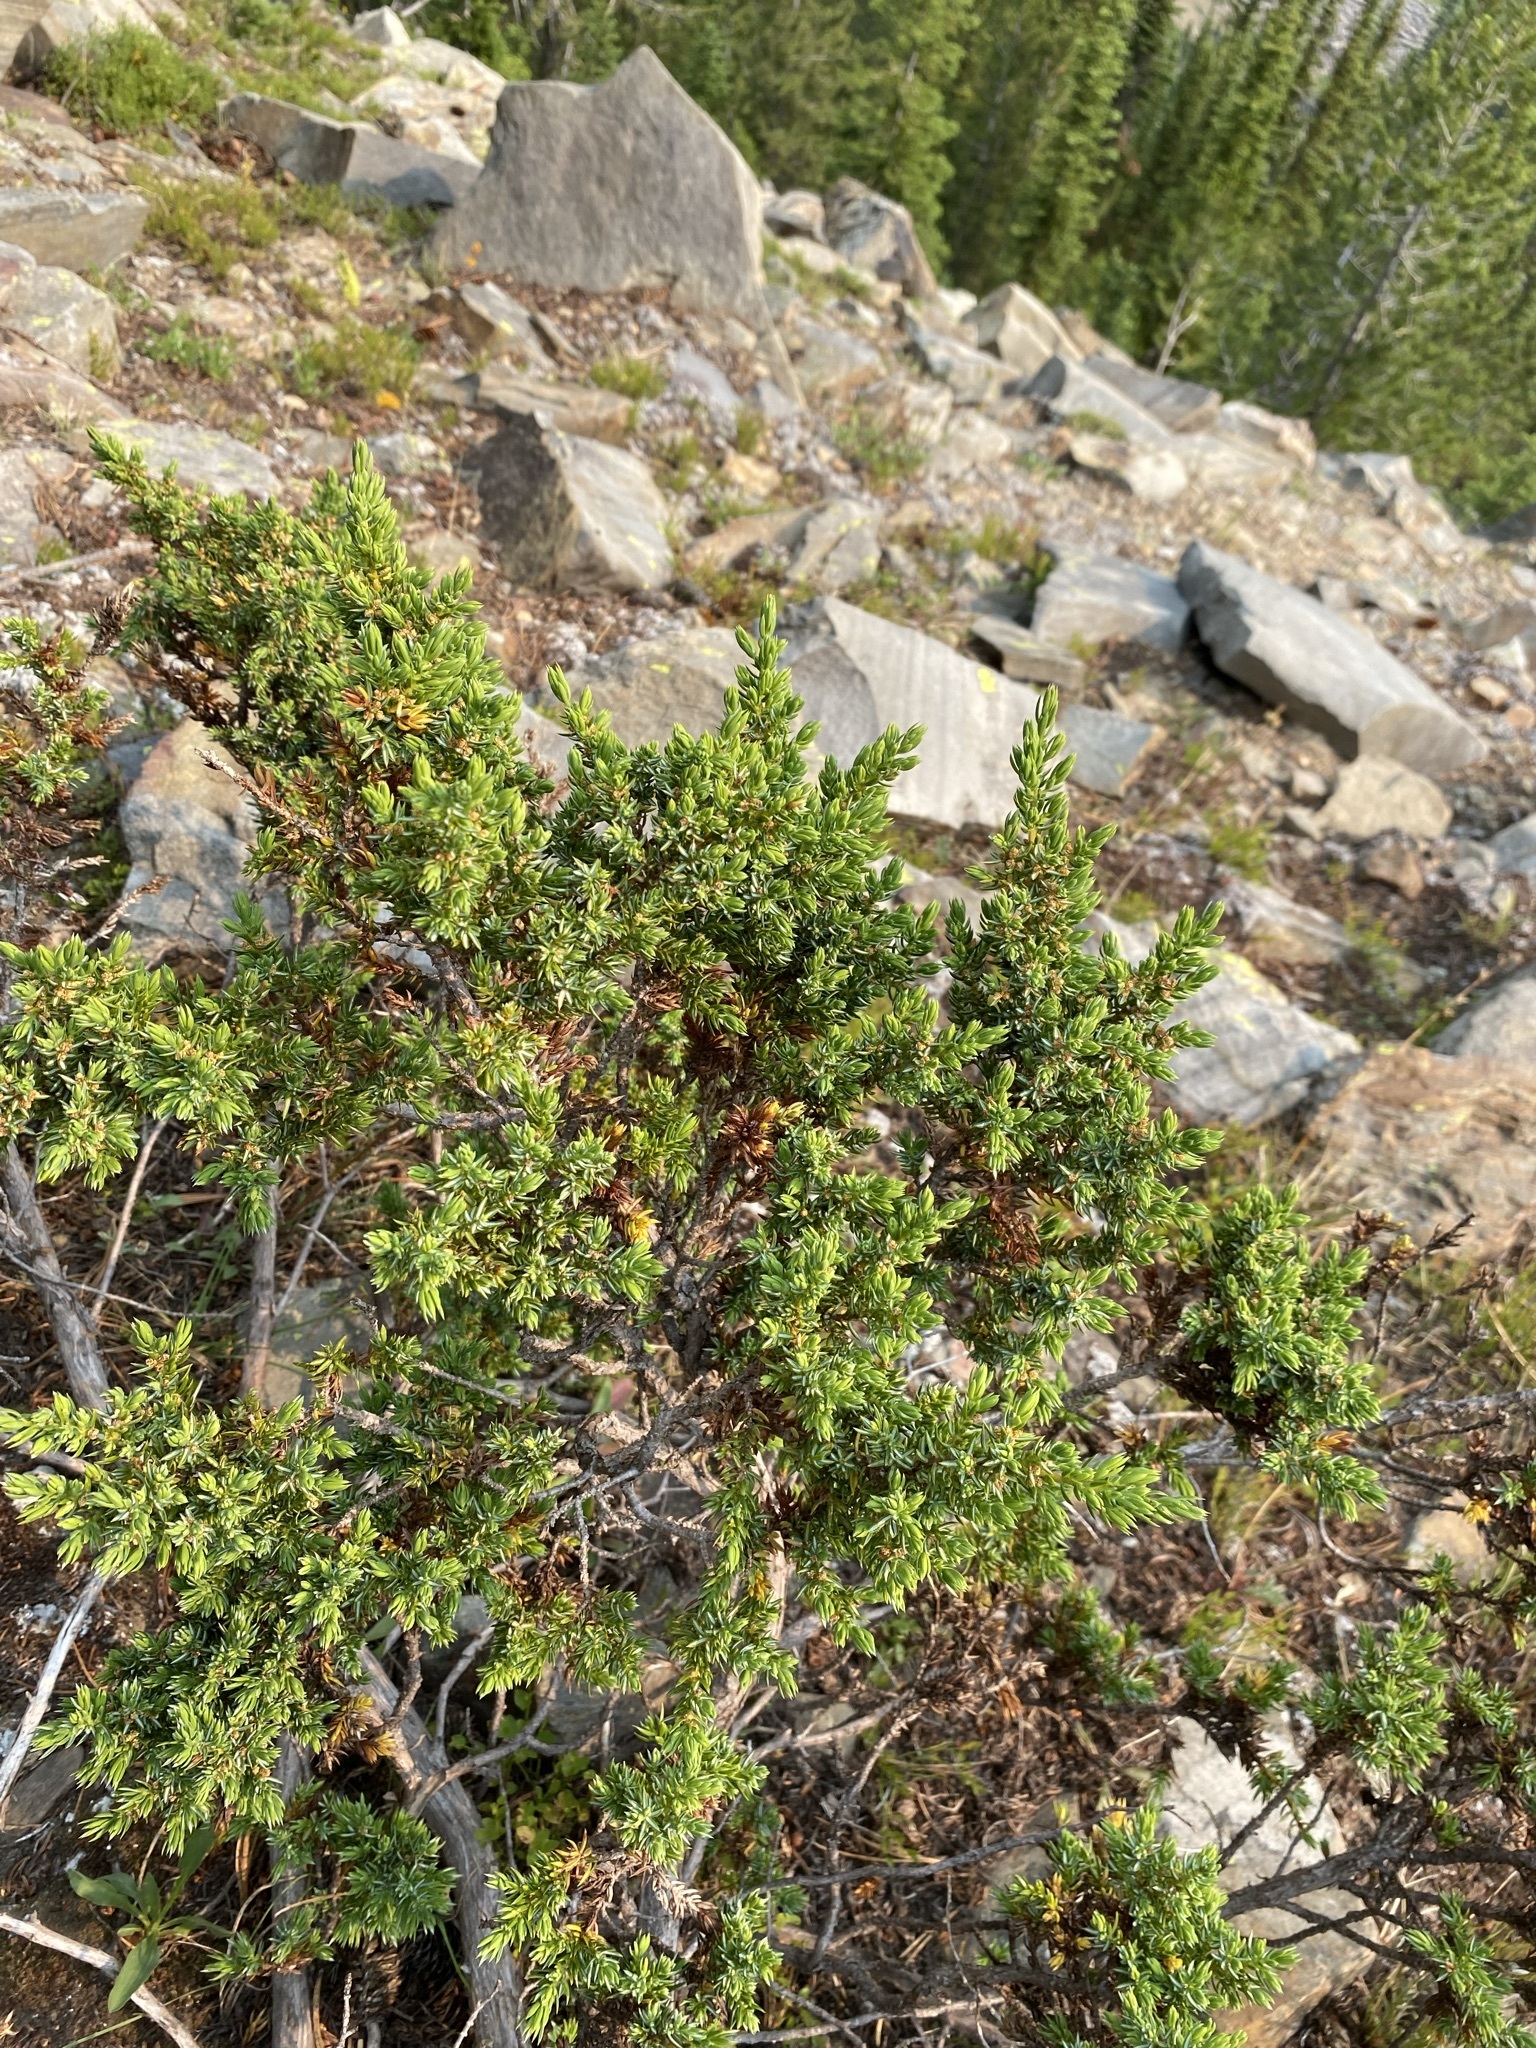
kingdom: Plantae
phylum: Tracheophyta
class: Pinopsida
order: Pinales
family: Cupressaceae
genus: Juniperus
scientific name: Juniperus communis
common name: Common juniper
